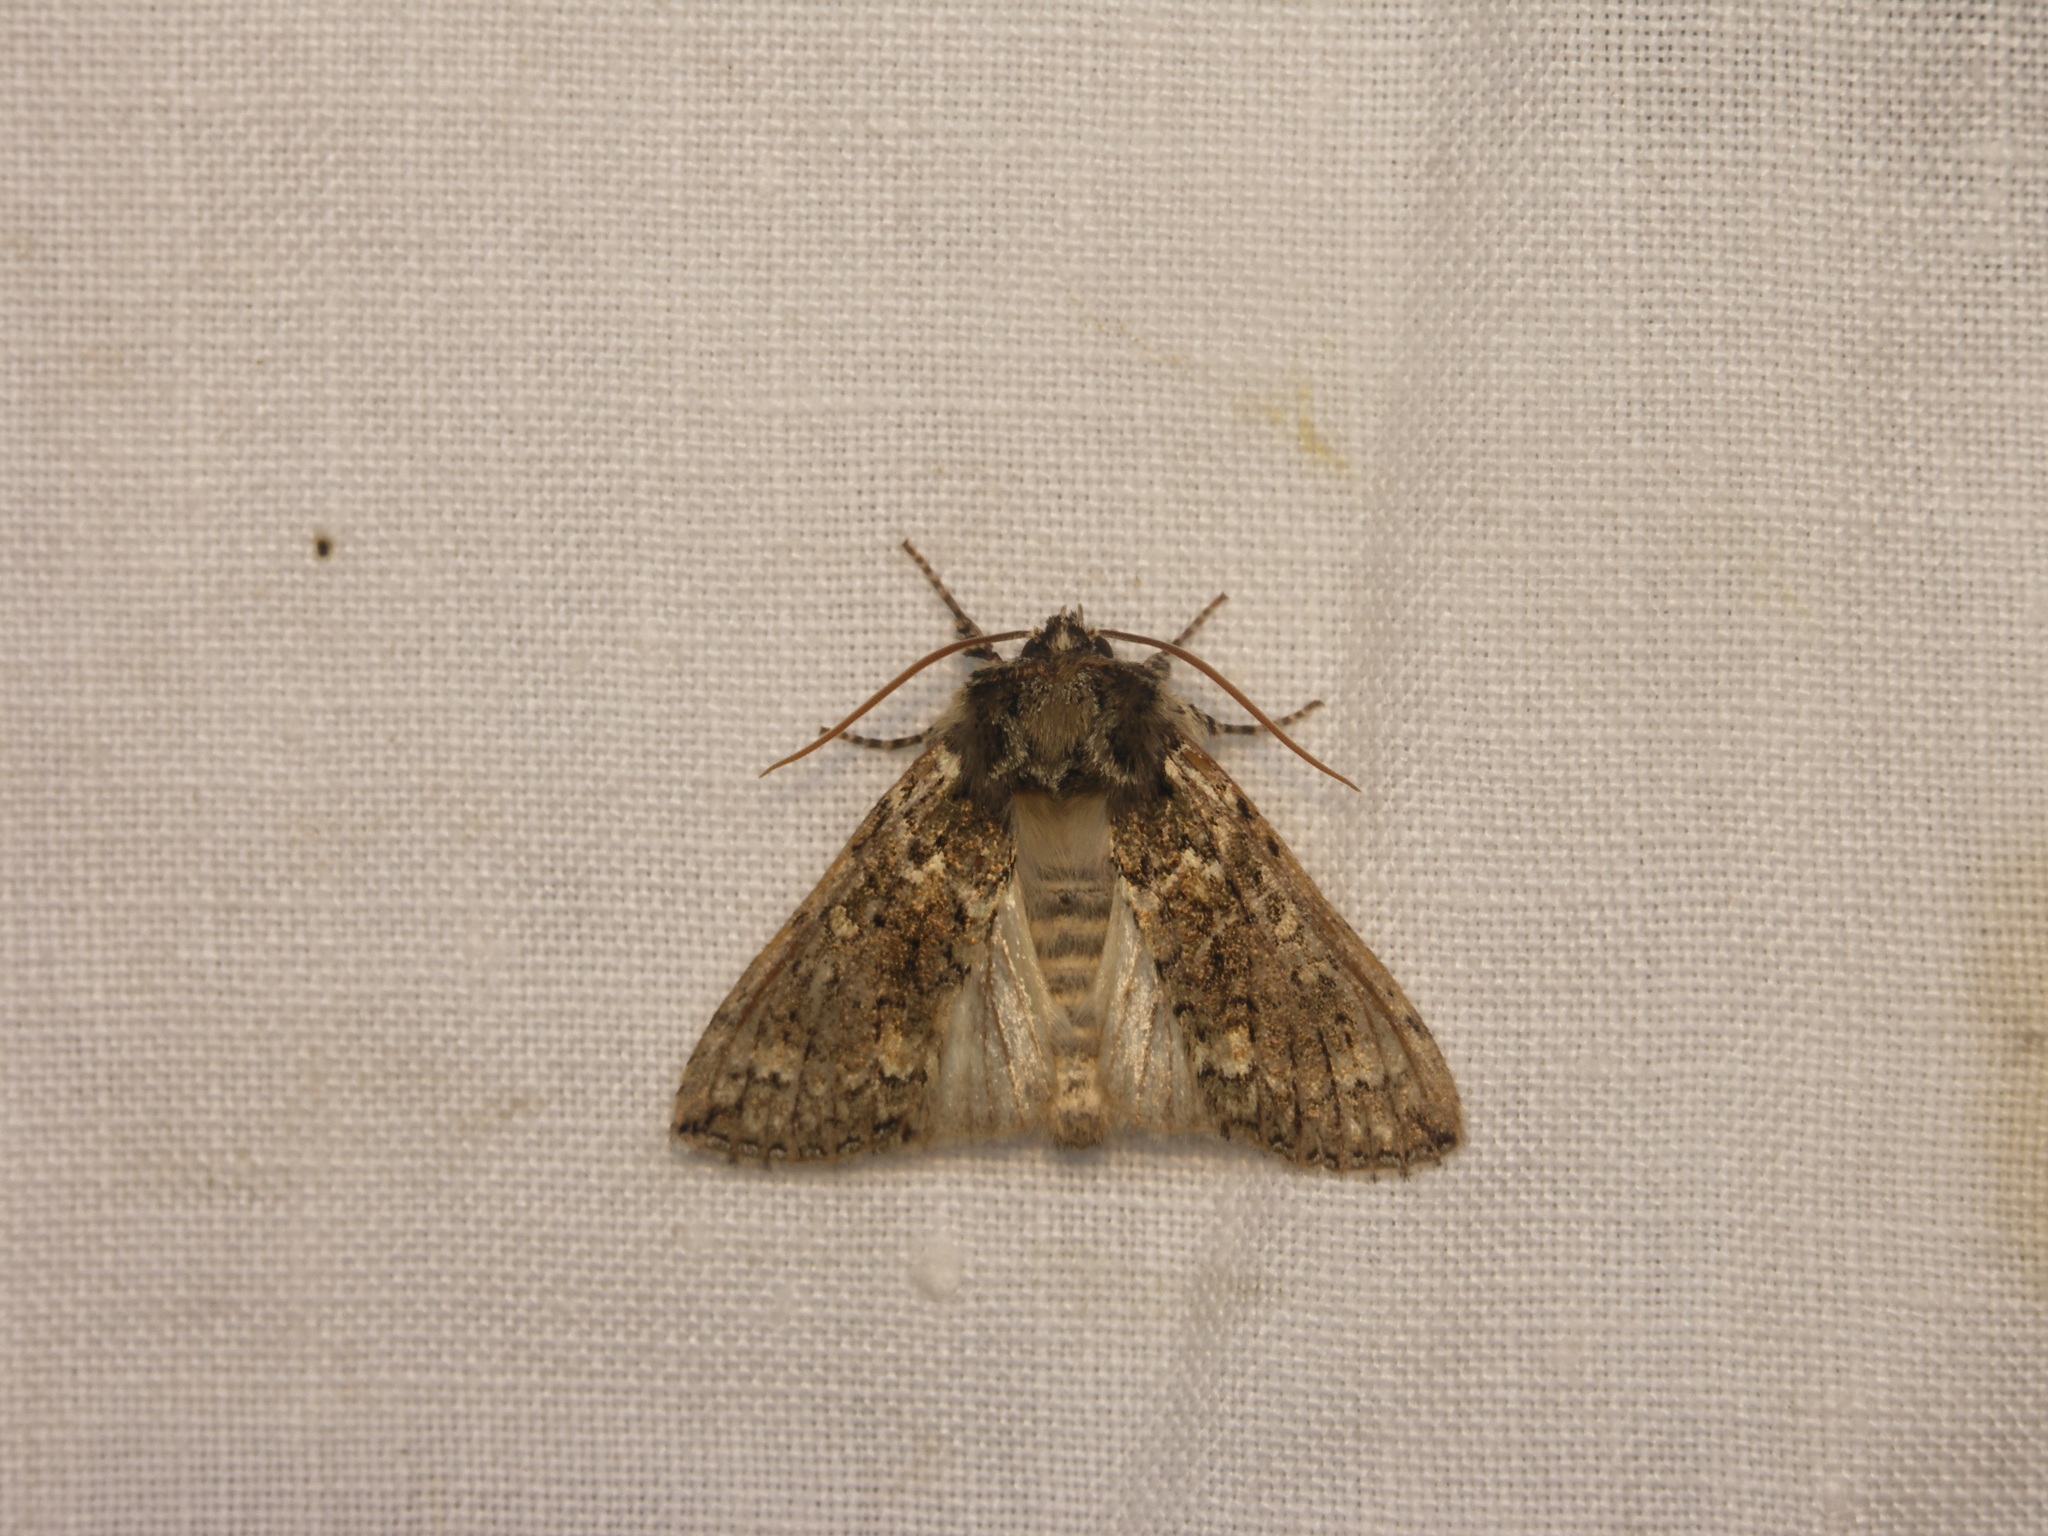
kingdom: Animalia
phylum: Arthropoda
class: Insecta
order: Lepidoptera
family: Drepanidae
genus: Polyploca
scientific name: Polyploca ridens
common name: Frosted green
